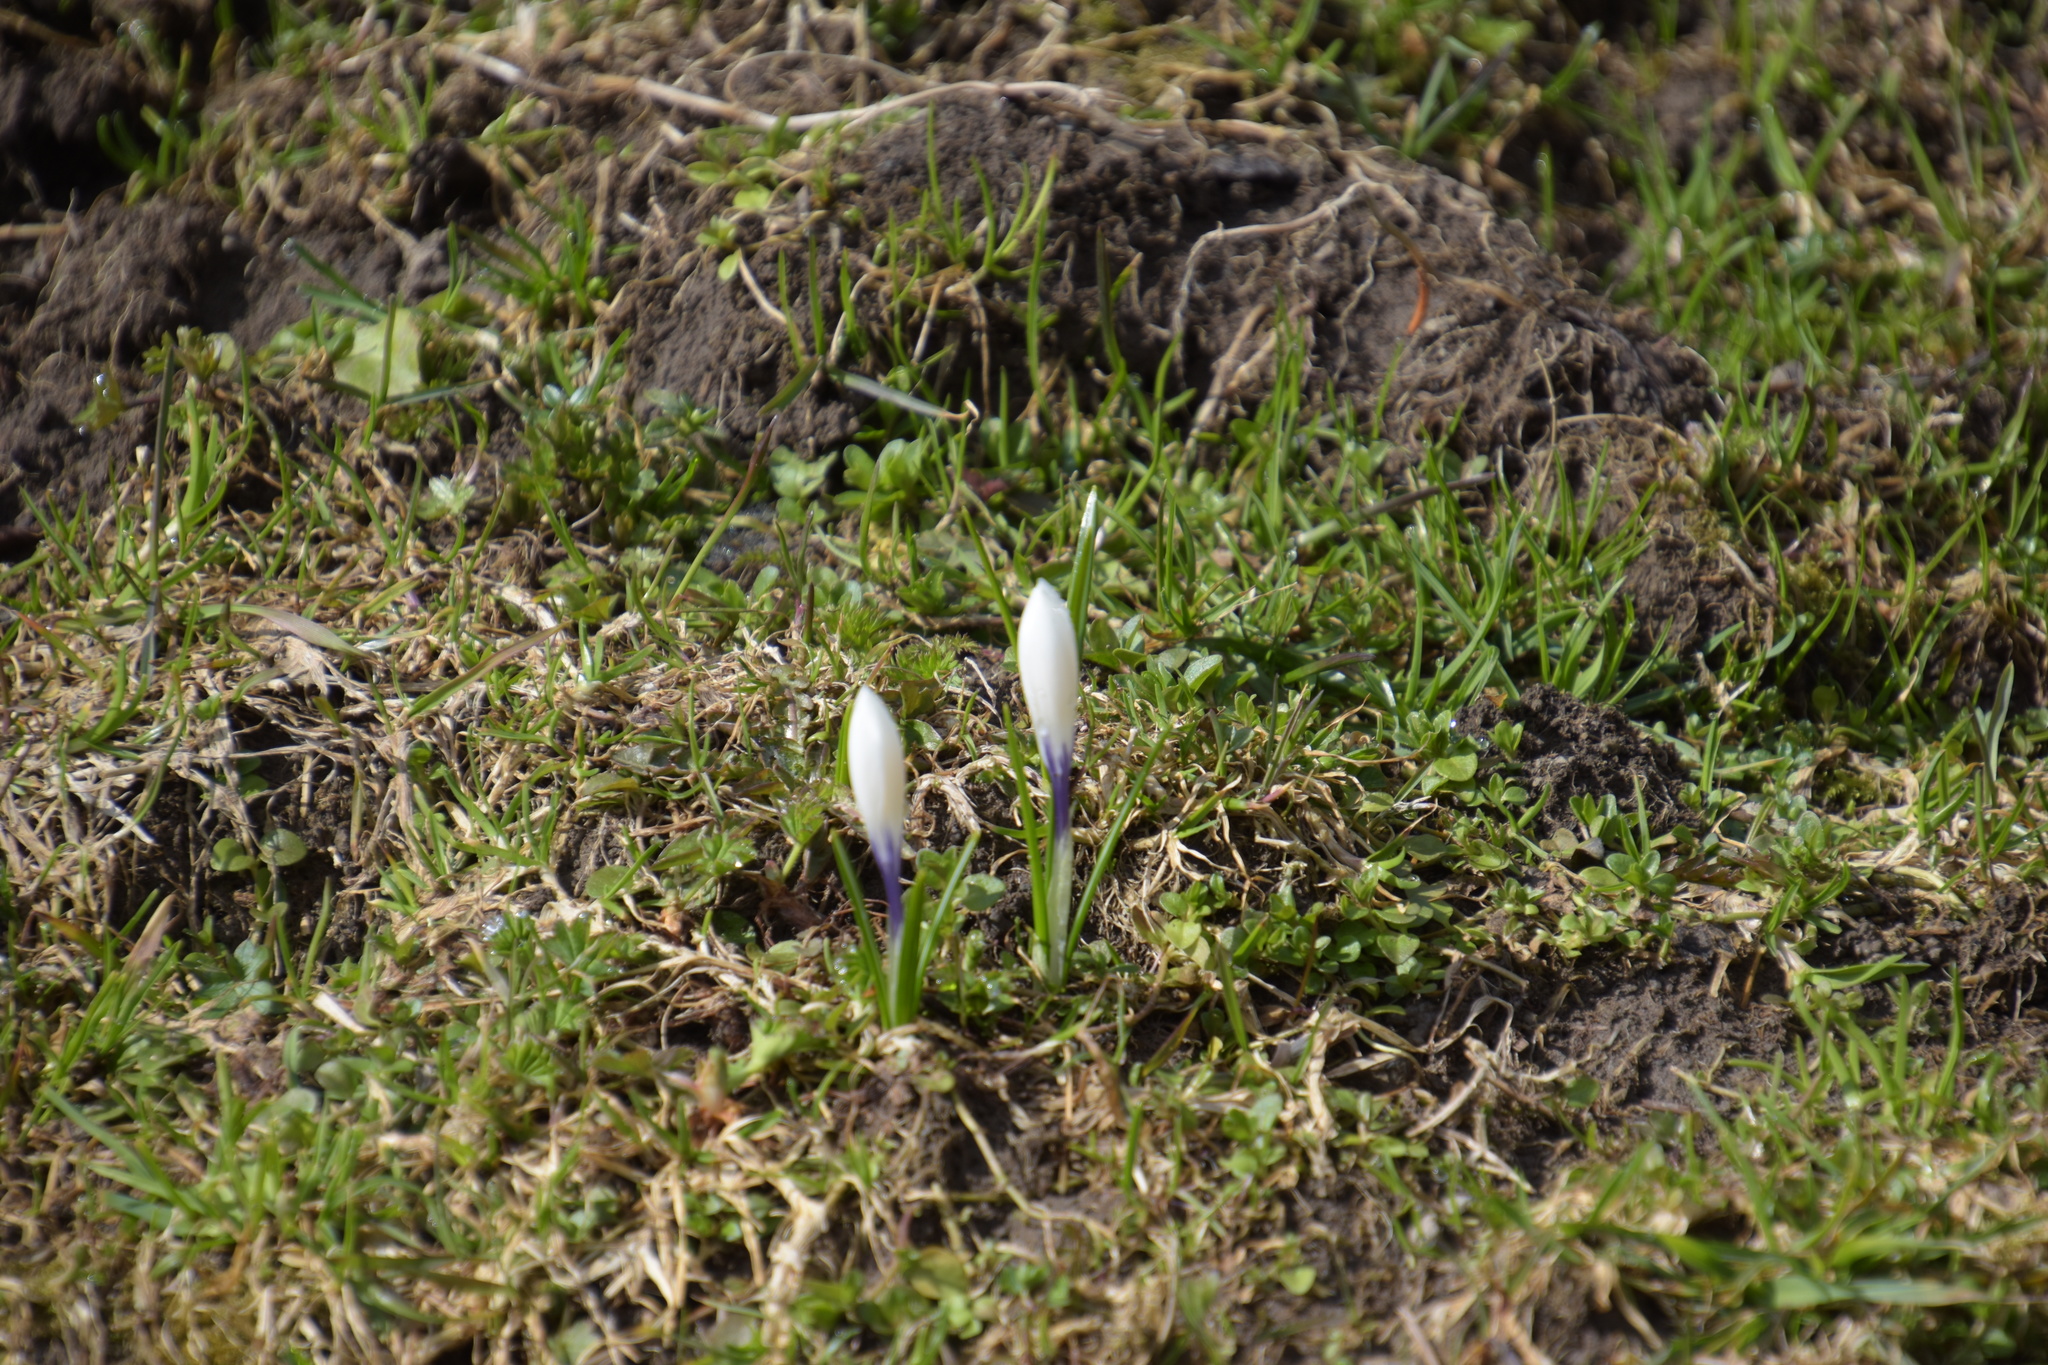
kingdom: Plantae
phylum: Tracheophyta
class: Liliopsida
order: Asparagales
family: Iridaceae
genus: Crocus
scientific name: Crocus vernus
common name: Spring crocus
